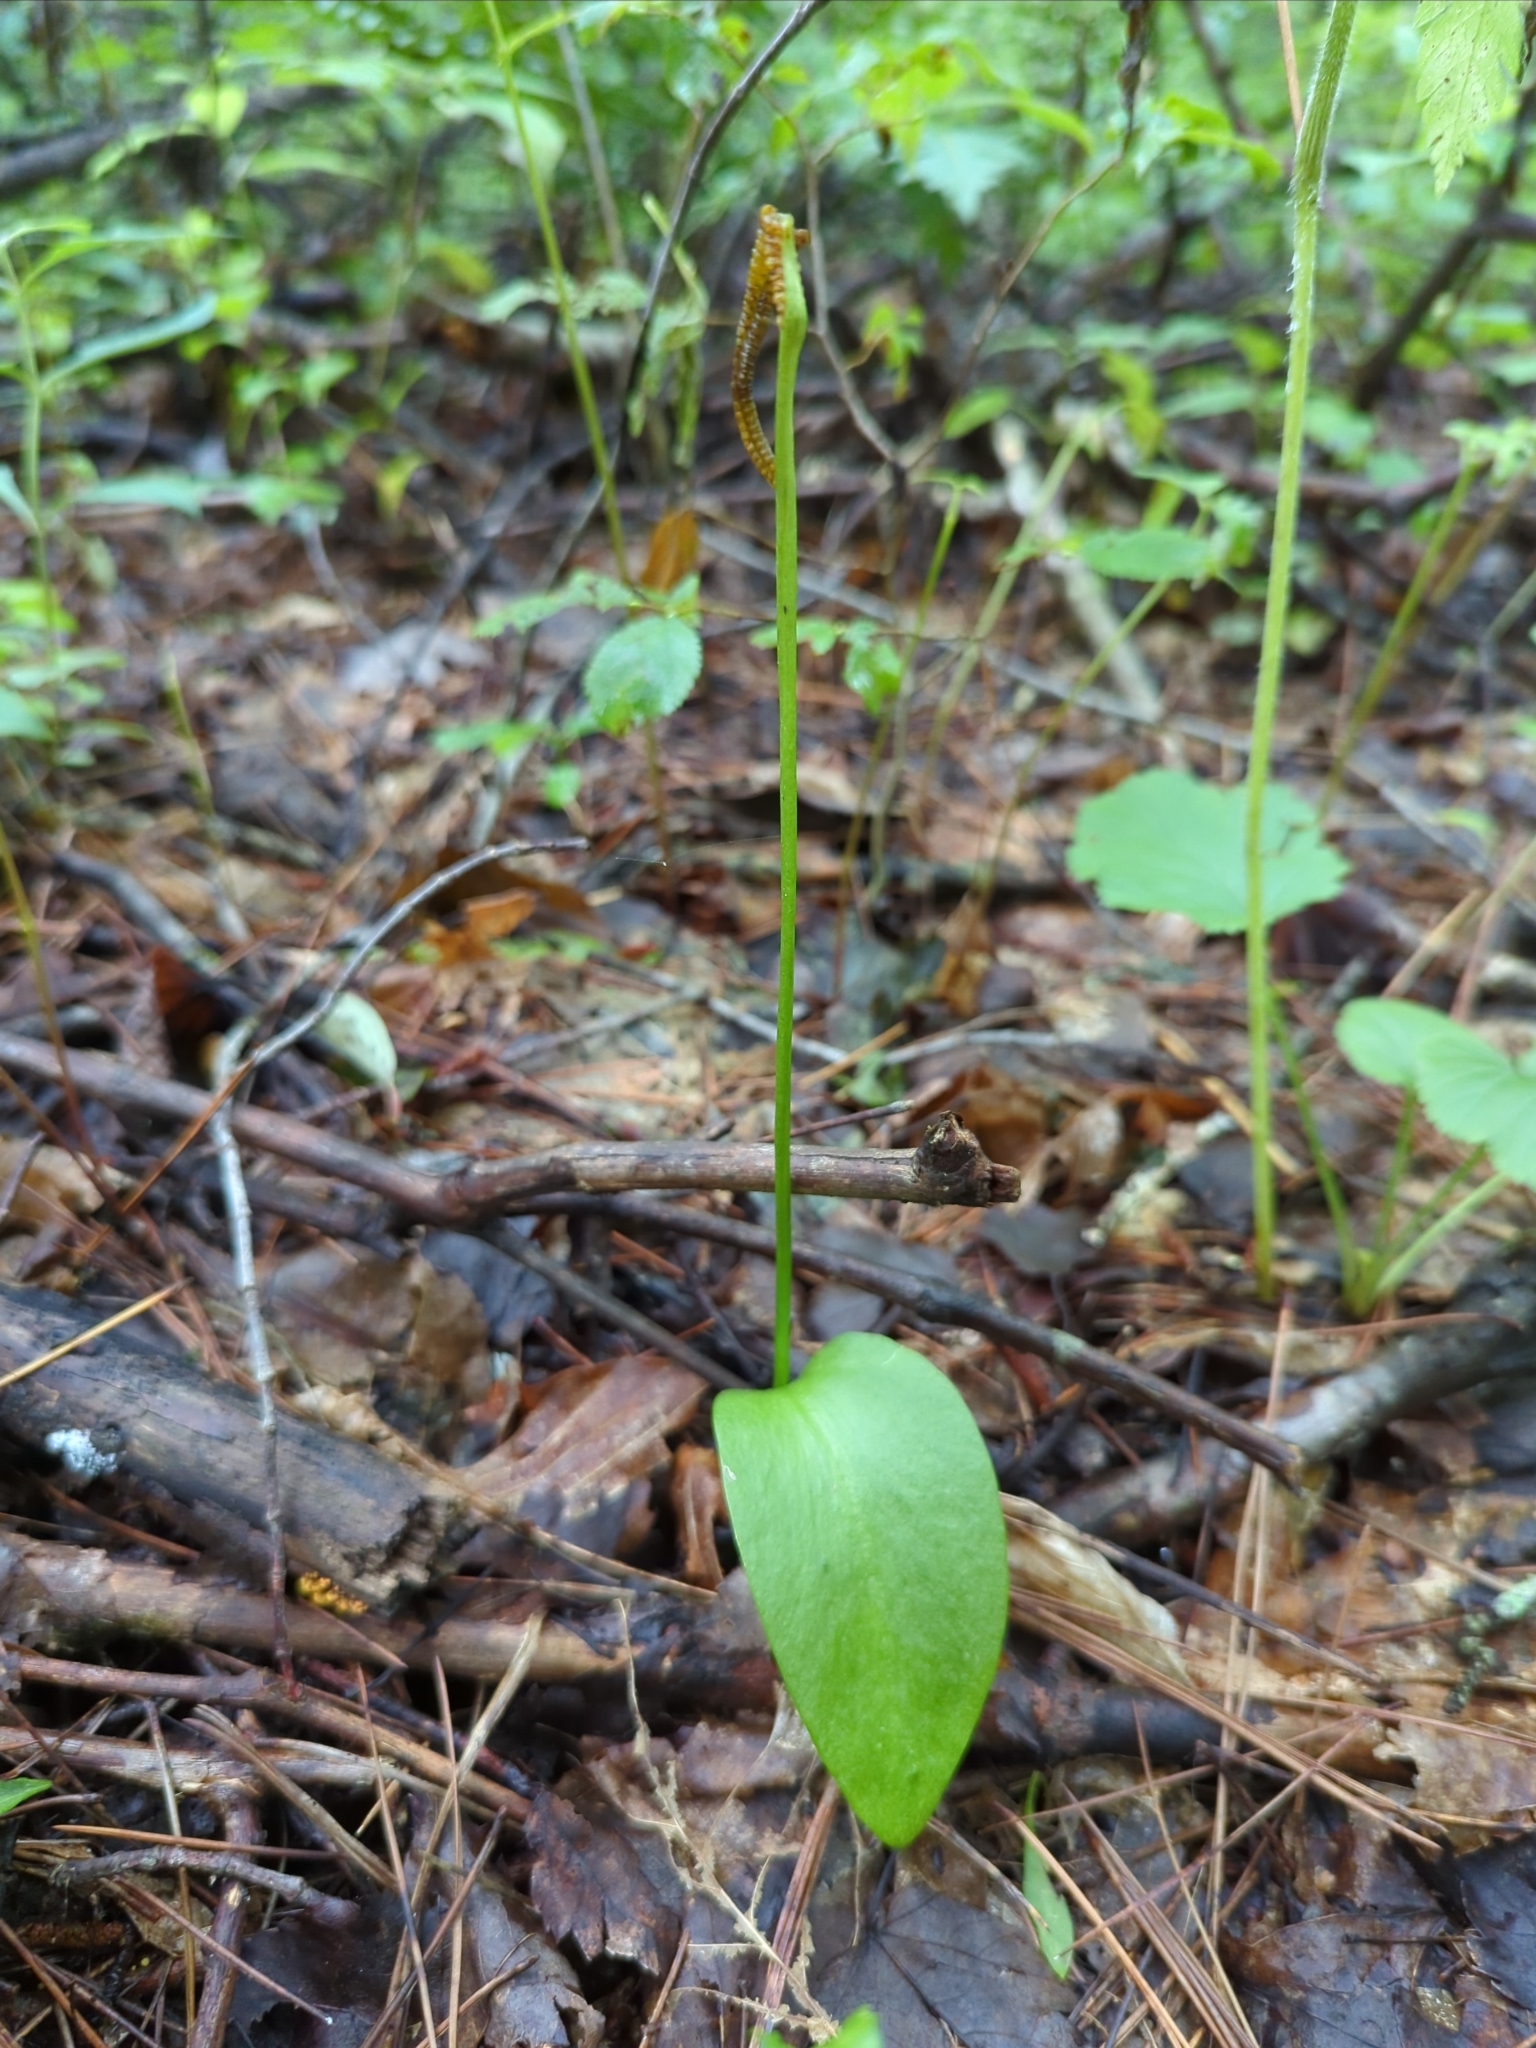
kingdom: Plantae
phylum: Tracheophyta
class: Polypodiopsida
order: Ophioglossales
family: Ophioglossaceae
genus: Ophioglossum
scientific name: Ophioglossum vulgatum
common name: Adder's-tongue
